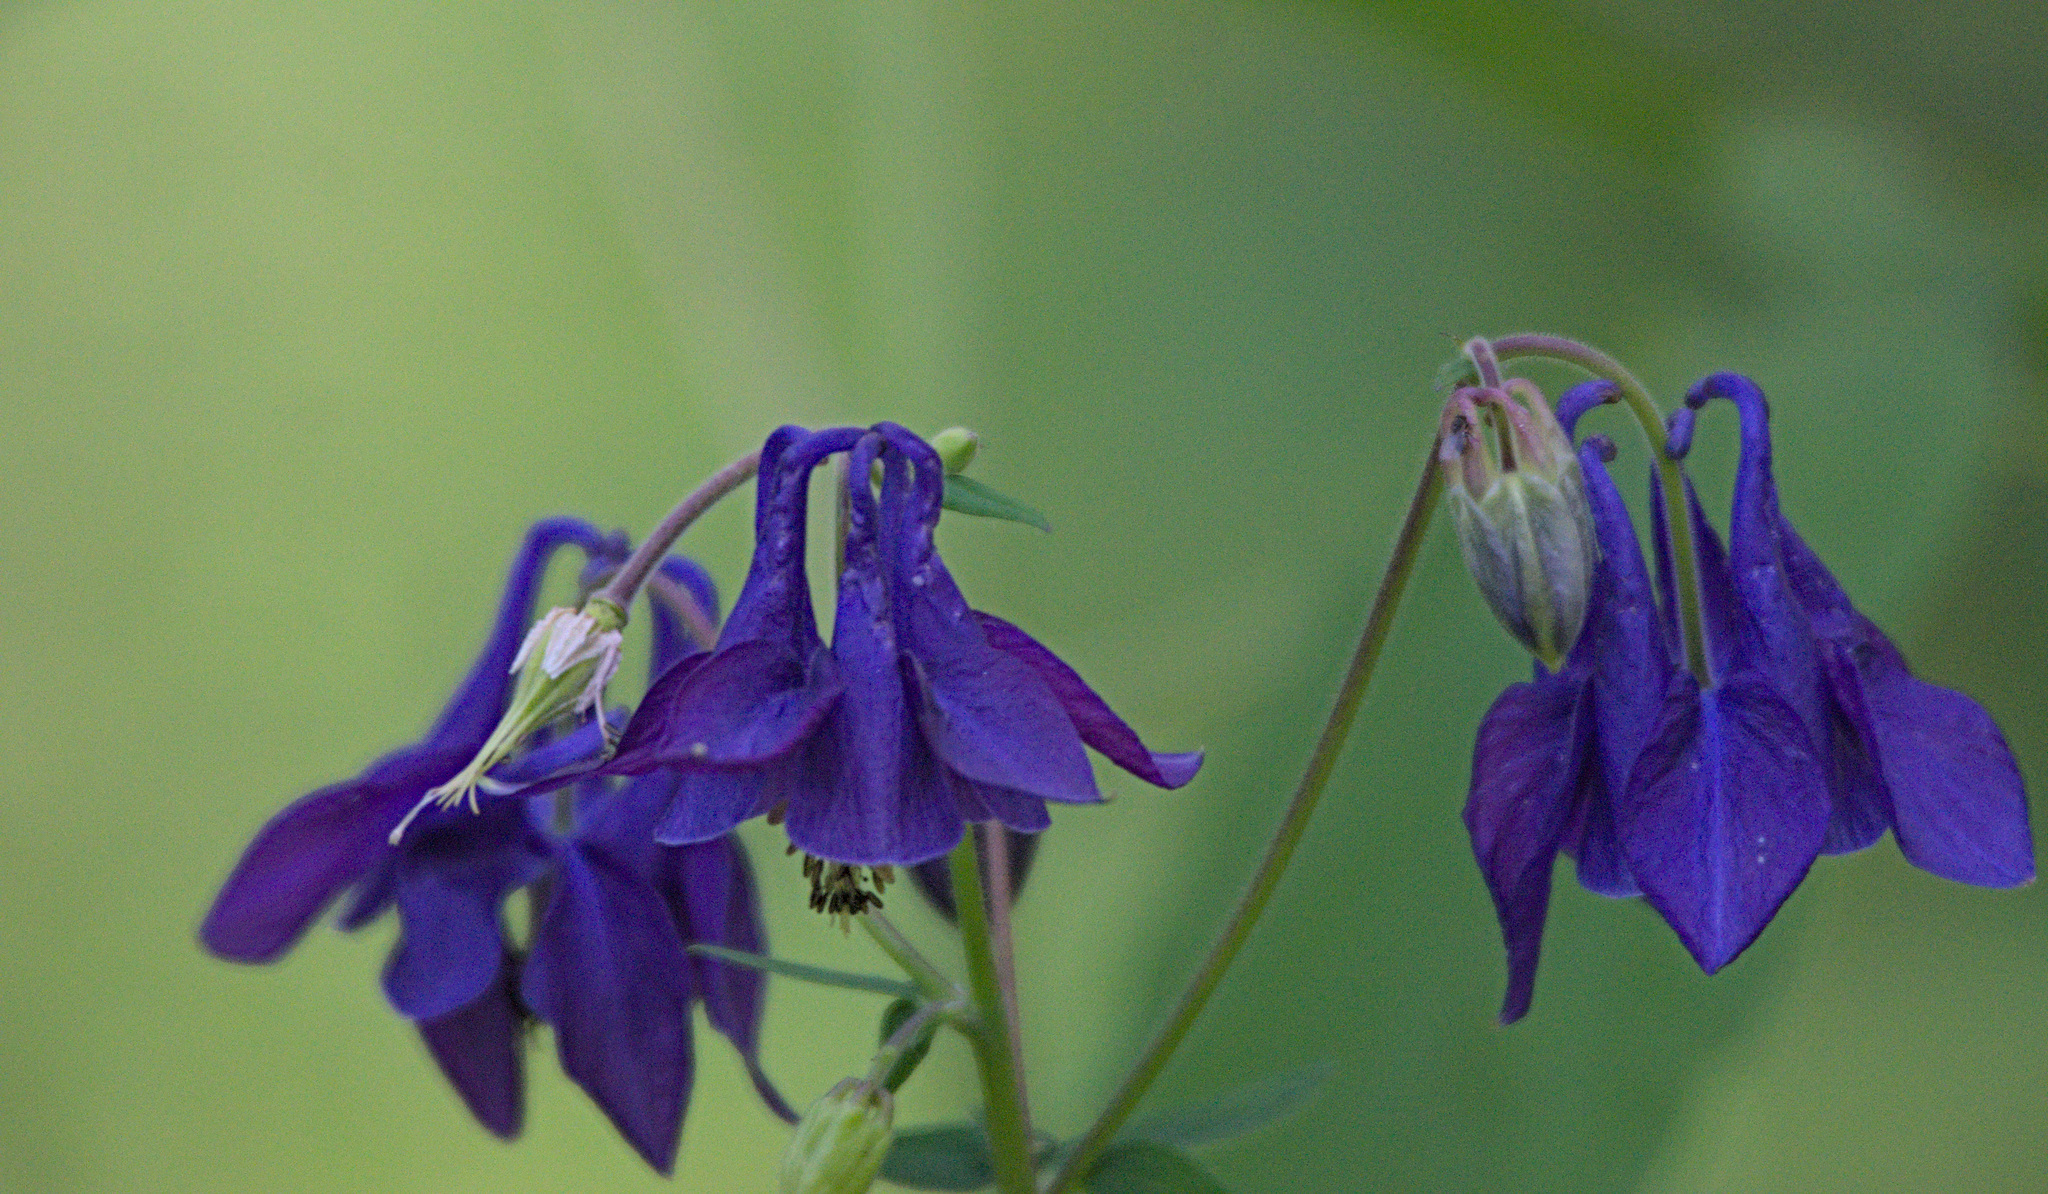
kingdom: Plantae
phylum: Tracheophyta
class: Magnoliopsida
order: Ranunculales
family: Ranunculaceae
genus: Aquilegia
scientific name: Aquilegia vulgaris
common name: Columbine
